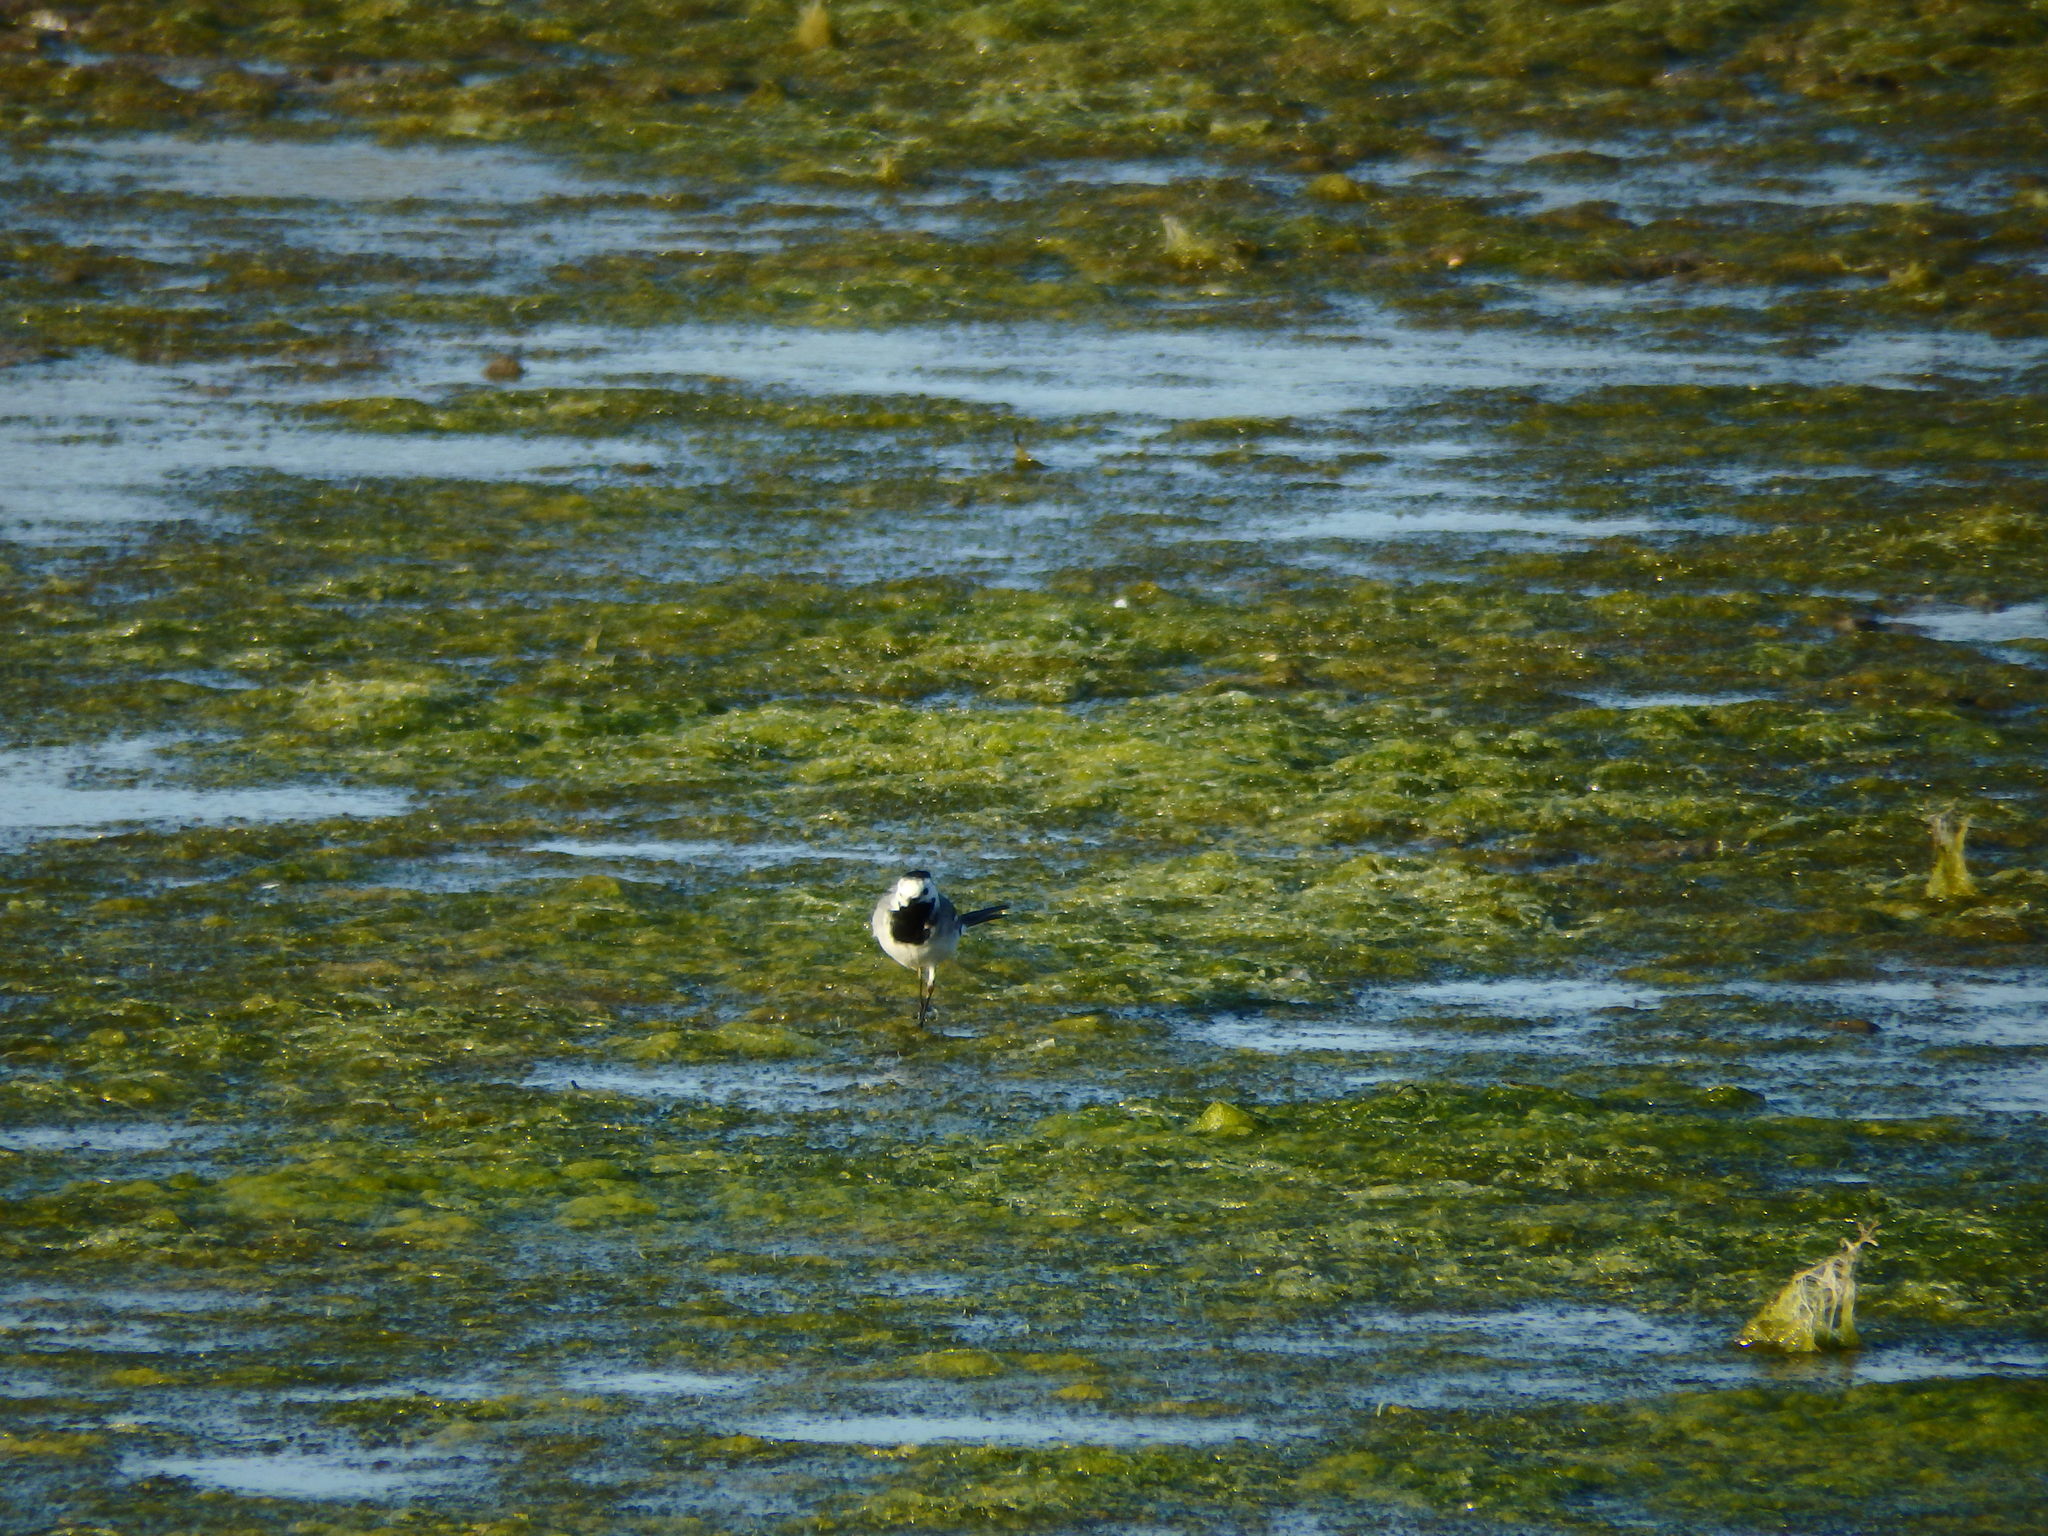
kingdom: Animalia
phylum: Chordata
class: Aves
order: Passeriformes
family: Motacillidae
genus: Motacilla
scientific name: Motacilla alba
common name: White wagtail
